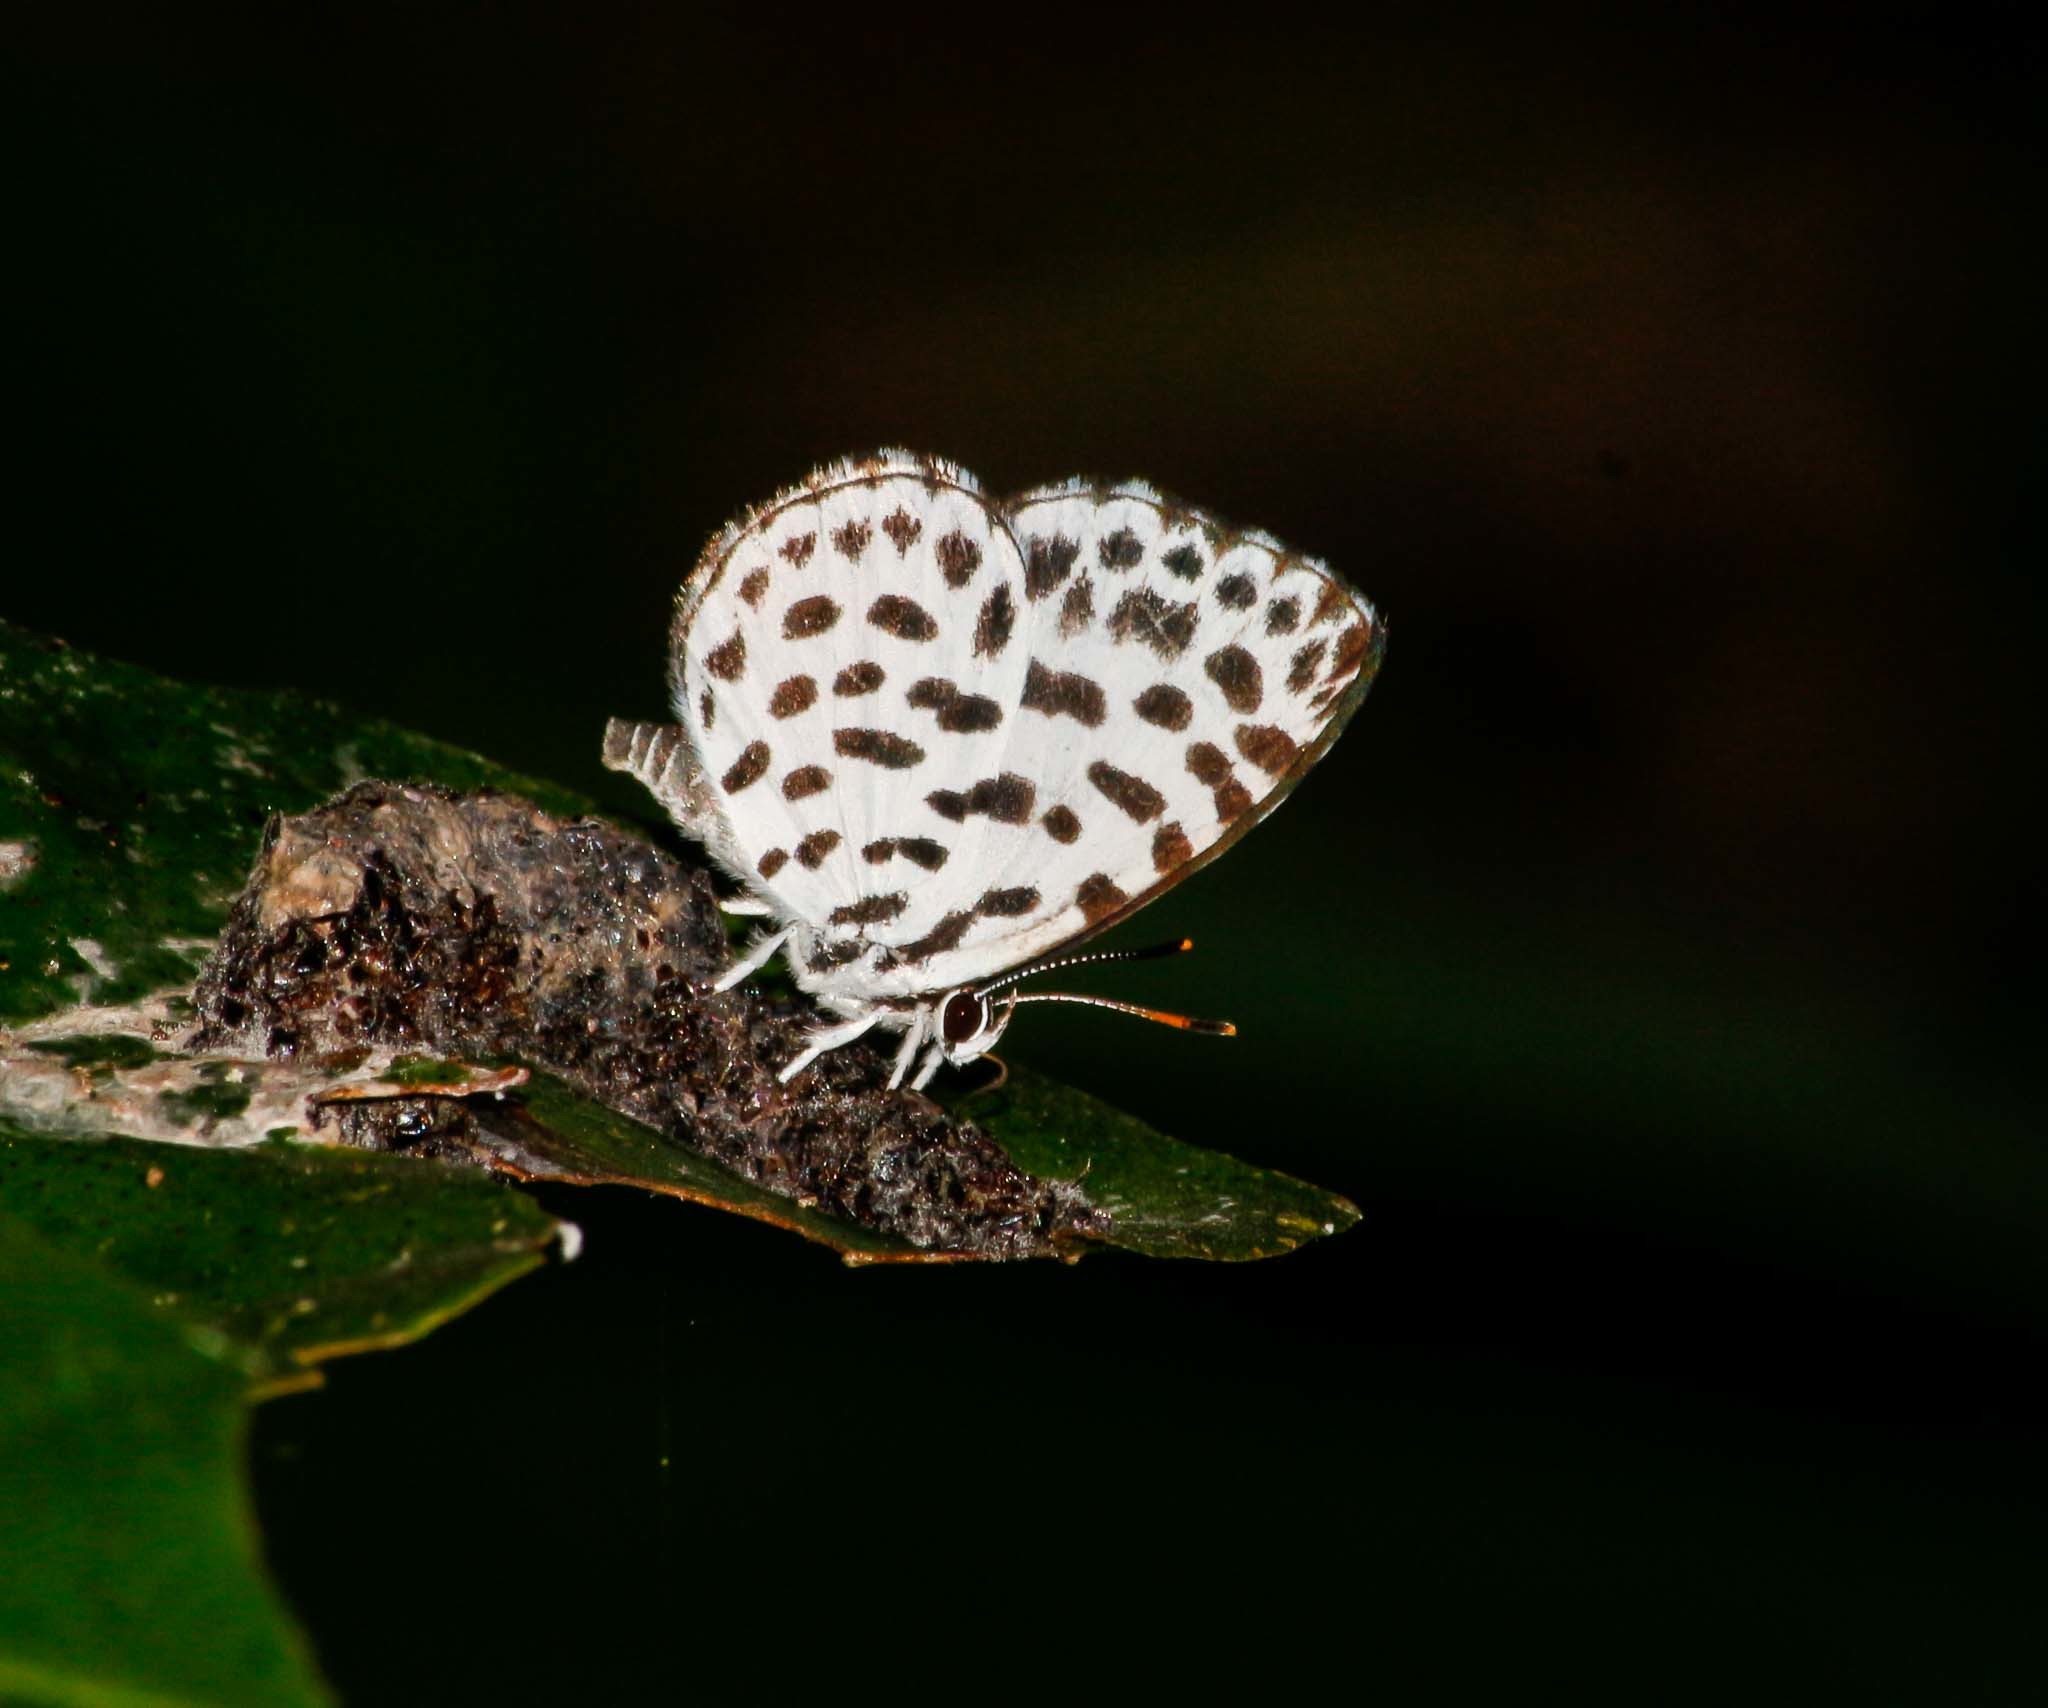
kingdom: Animalia
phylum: Arthropoda
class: Insecta
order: Lepidoptera
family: Lycaenidae
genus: Taraka
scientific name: Taraka hamada
